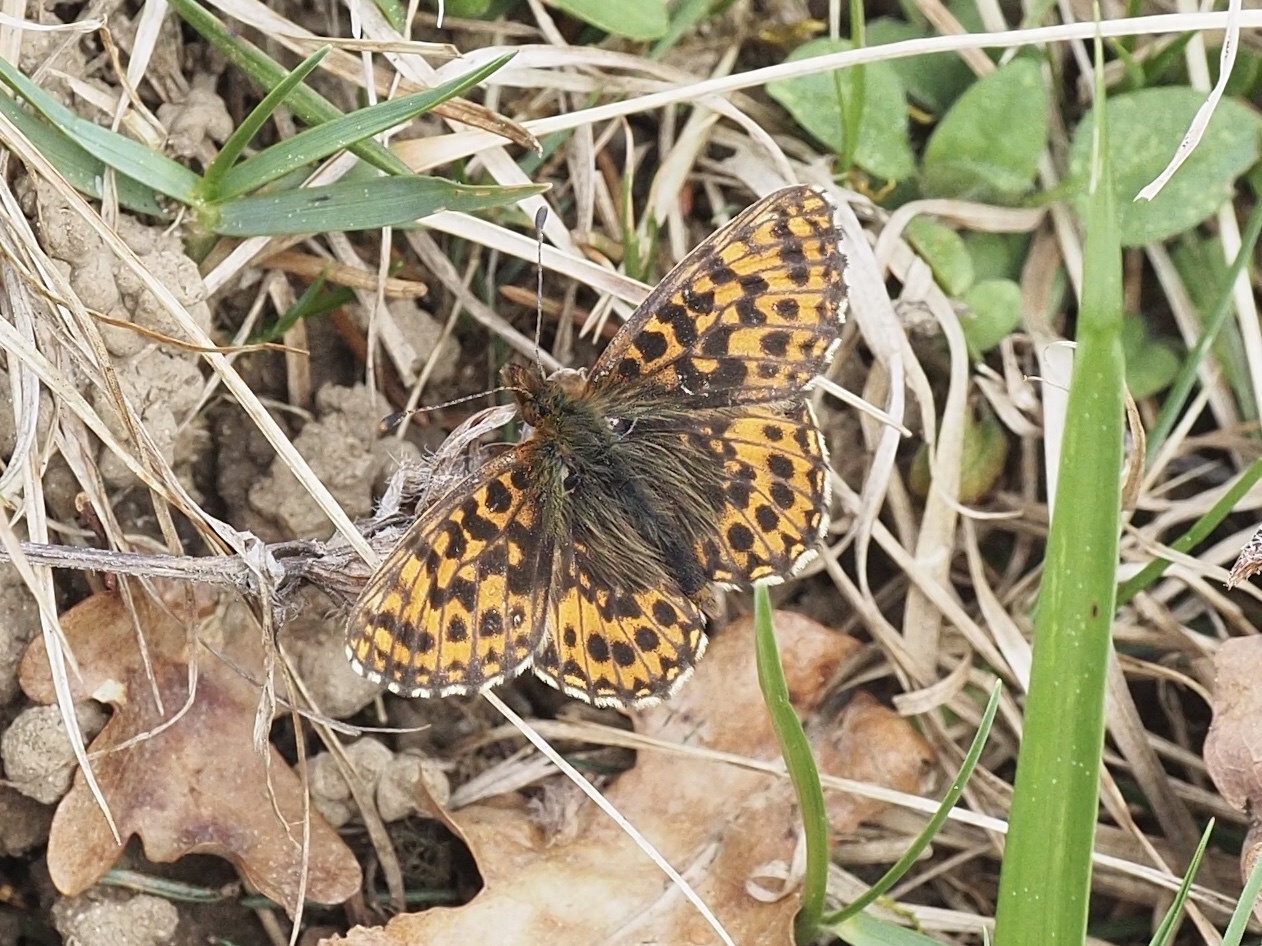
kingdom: Animalia
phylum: Arthropoda
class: Insecta
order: Lepidoptera
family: Nymphalidae
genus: Boloria
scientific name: Boloria dia
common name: Weaver's fritillary
